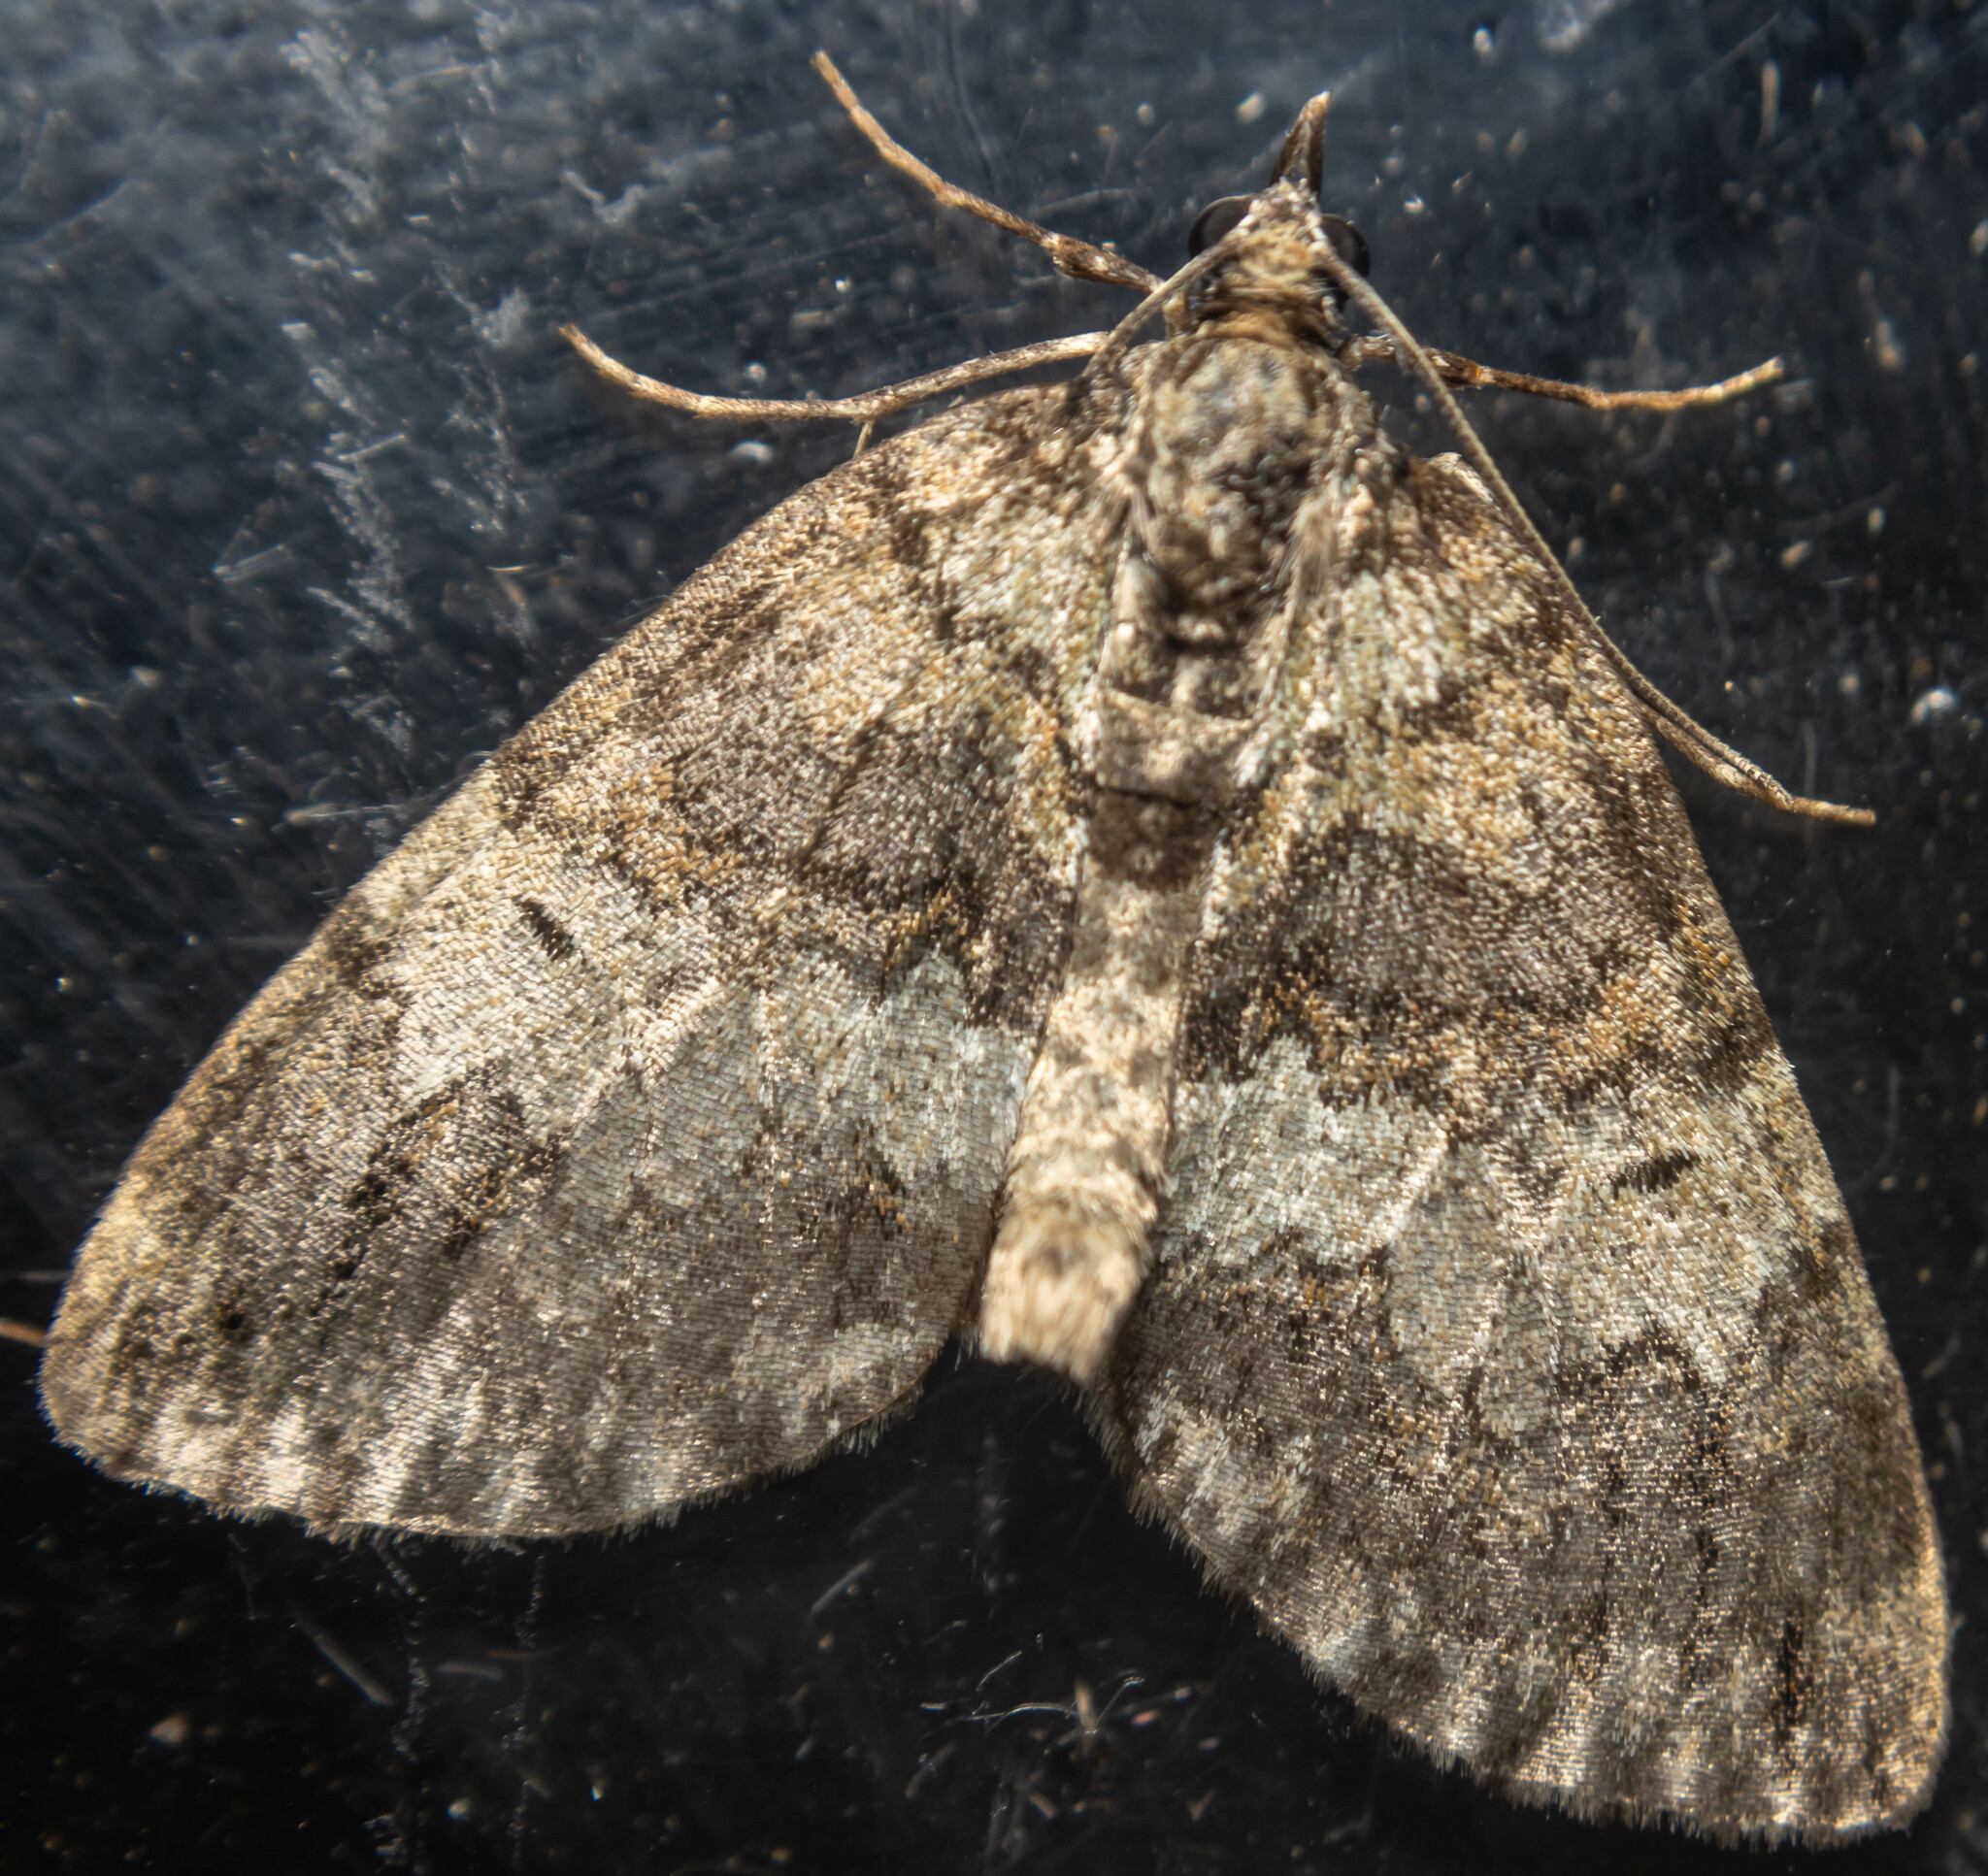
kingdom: Animalia
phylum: Arthropoda
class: Insecta
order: Lepidoptera
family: Geometridae
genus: Hydriomena
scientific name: Hydriomena impluviata
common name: May highflyer
